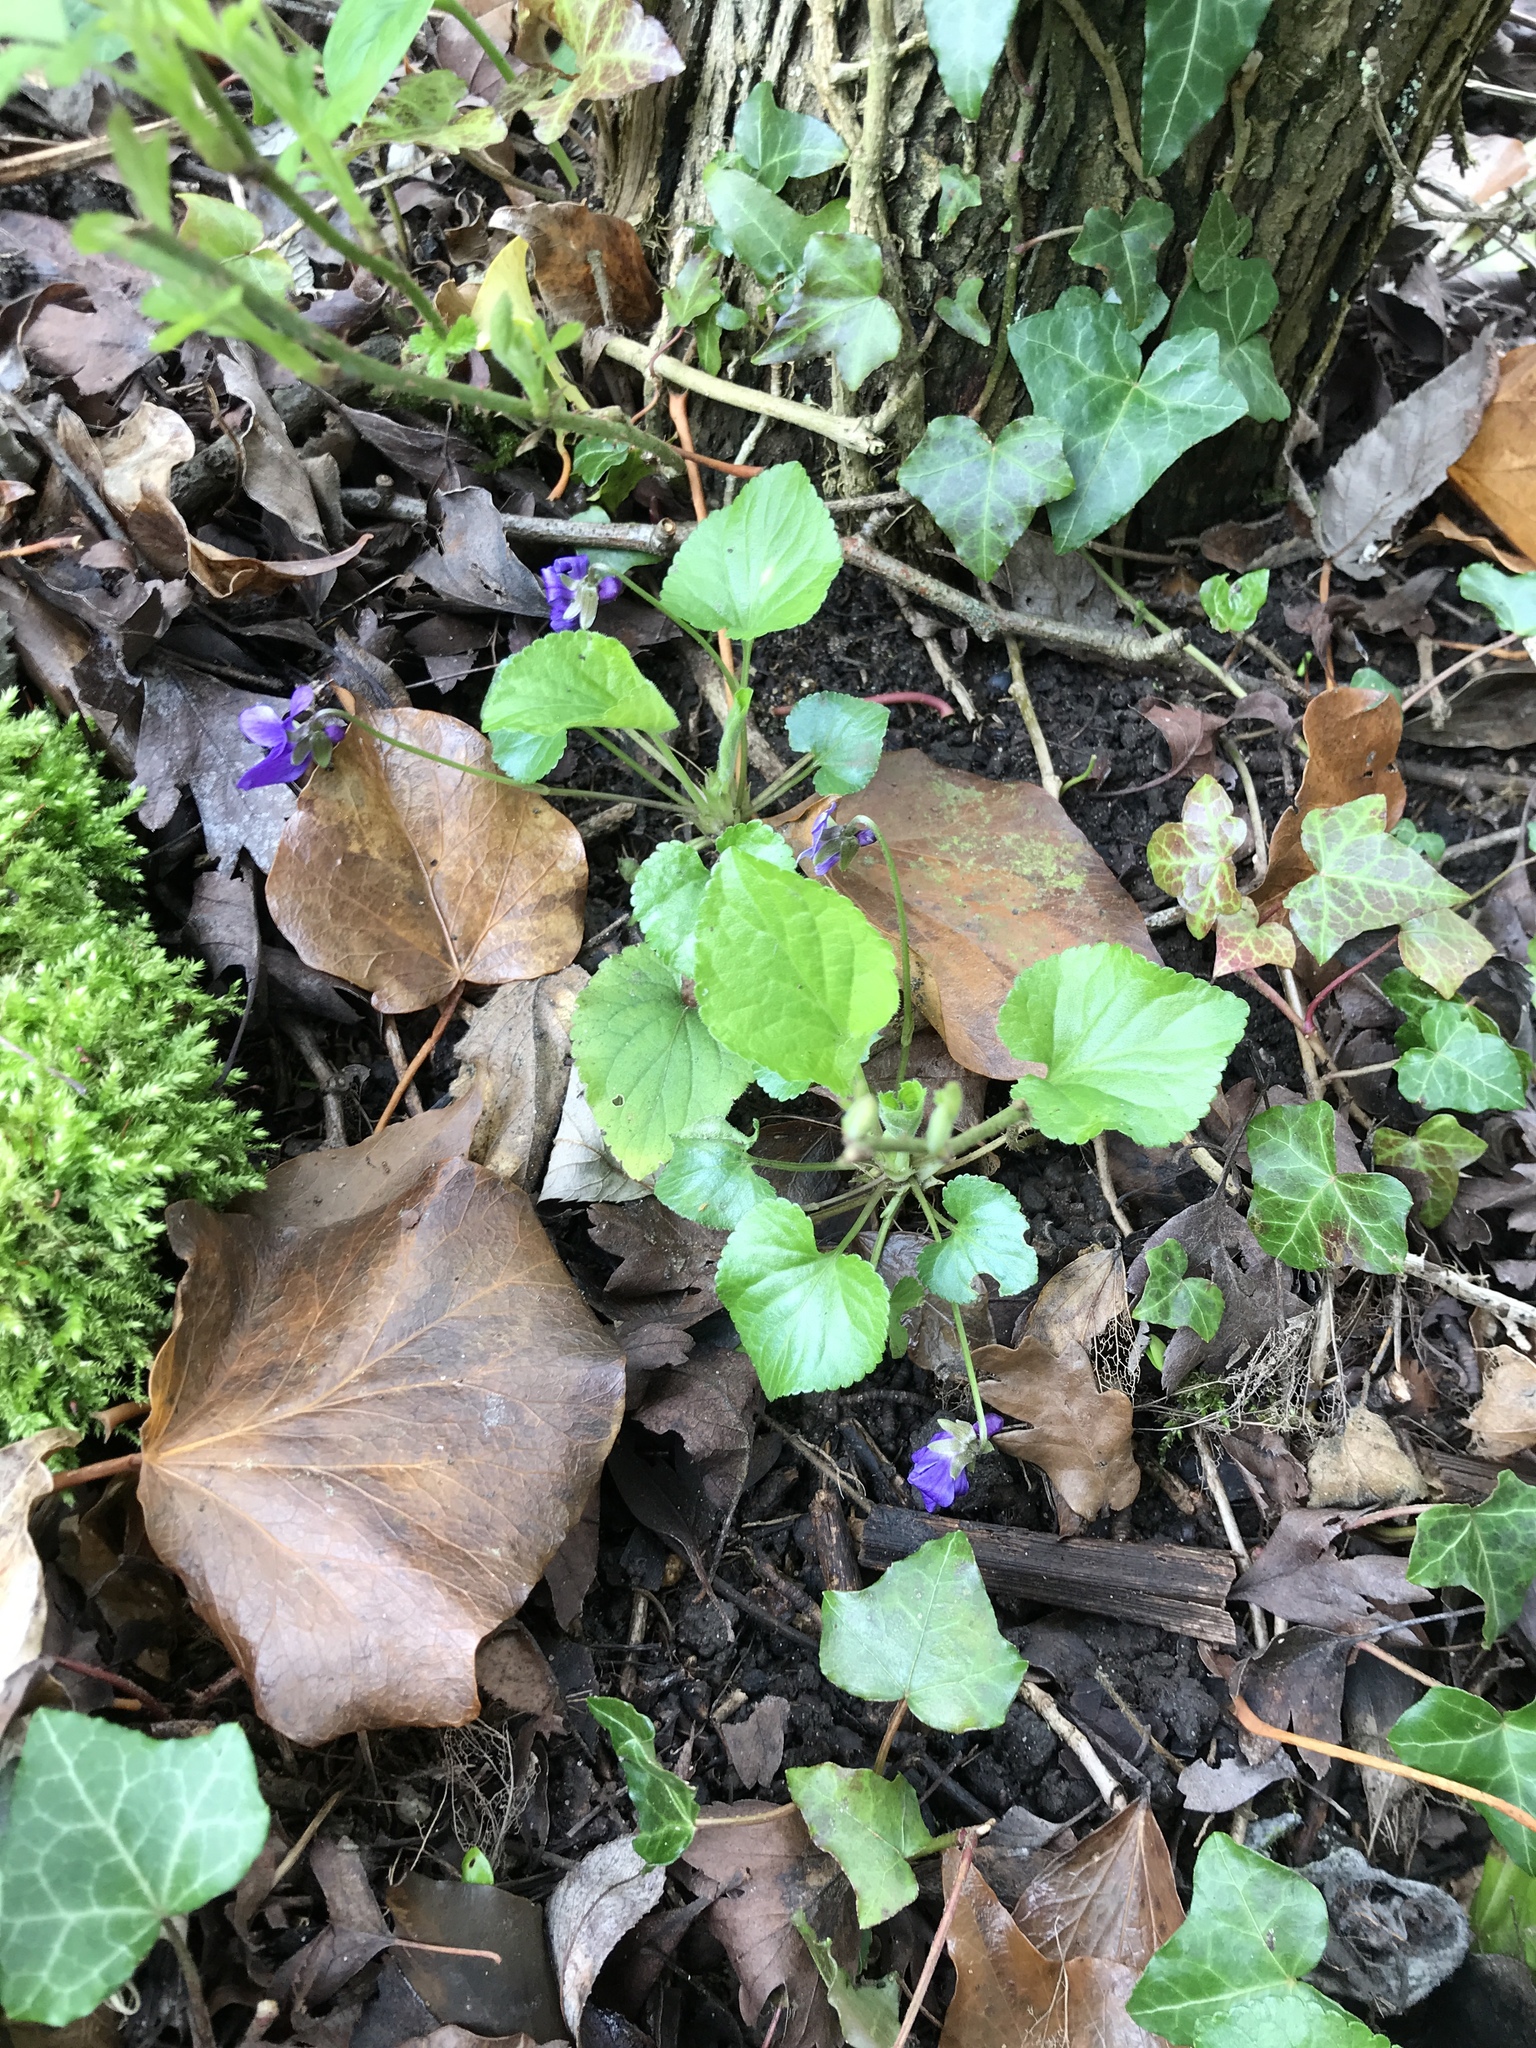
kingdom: Plantae
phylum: Tracheophyta
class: Magnoliopsida
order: Malpighiales
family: Violaceae
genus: Viola
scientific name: Viola odorata
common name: Sweet violet
